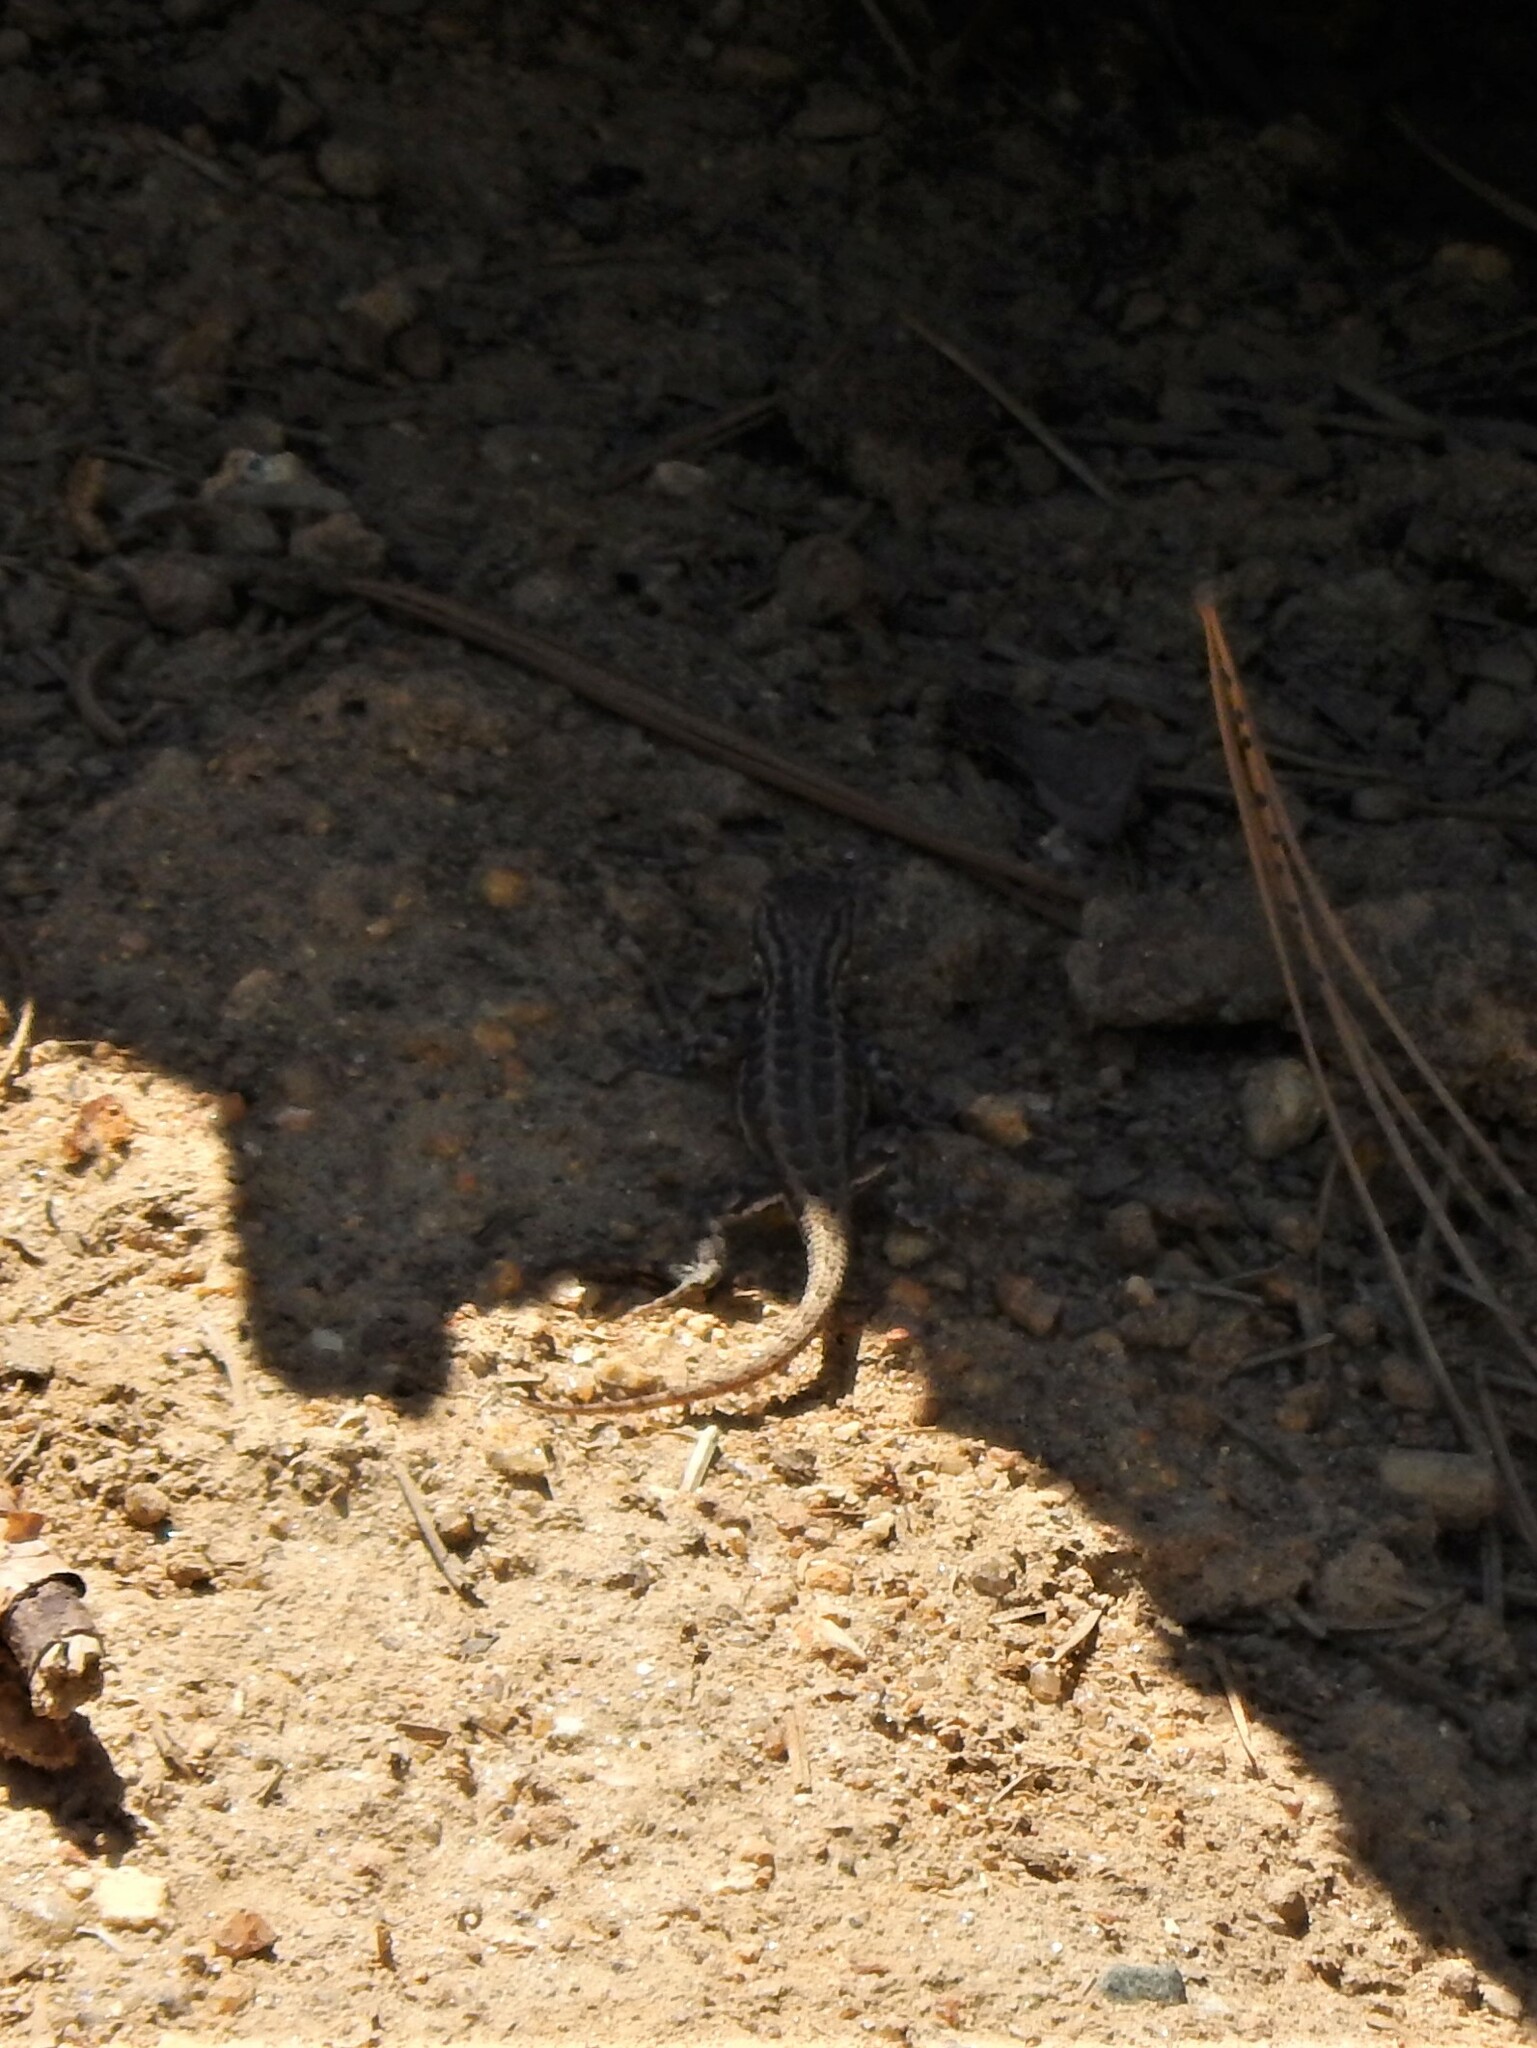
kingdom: Animalia
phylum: Chordata
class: Squamata
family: Phrynosomatidae
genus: Sceloporus
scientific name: Sceloporus graciosus
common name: Sagebrush lizard
